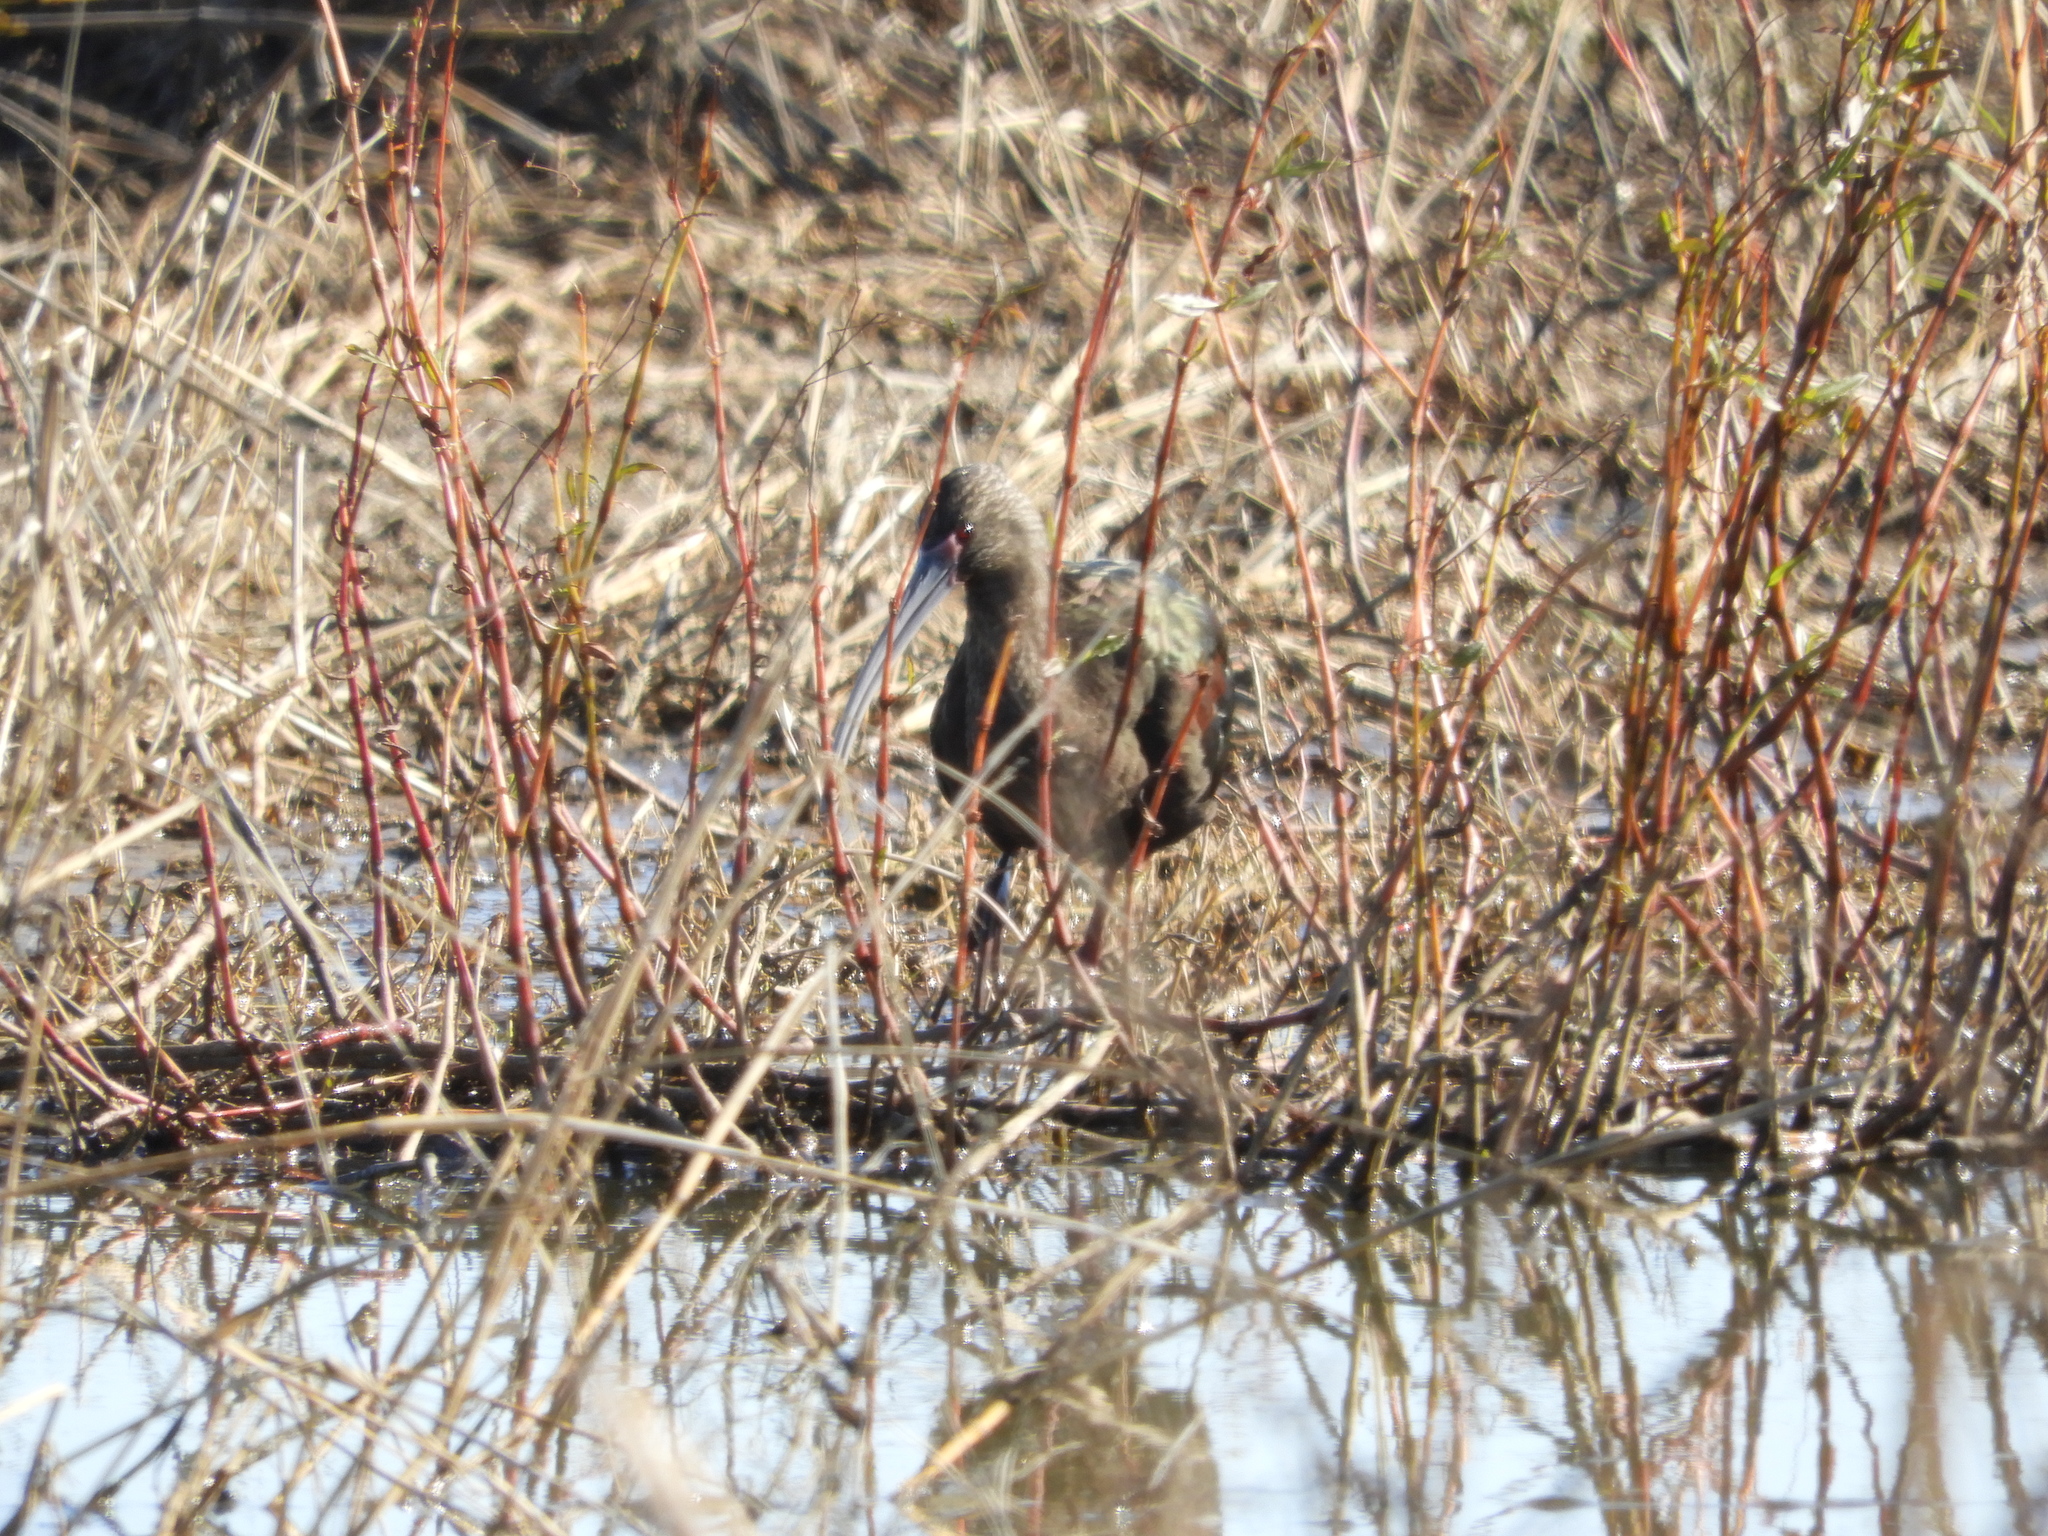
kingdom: Animalia
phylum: Chordata
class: Aves
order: Pelecaniformes
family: Threskiornithidae
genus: Plegadis
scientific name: Plegadis chihi
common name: White-faced ibis
